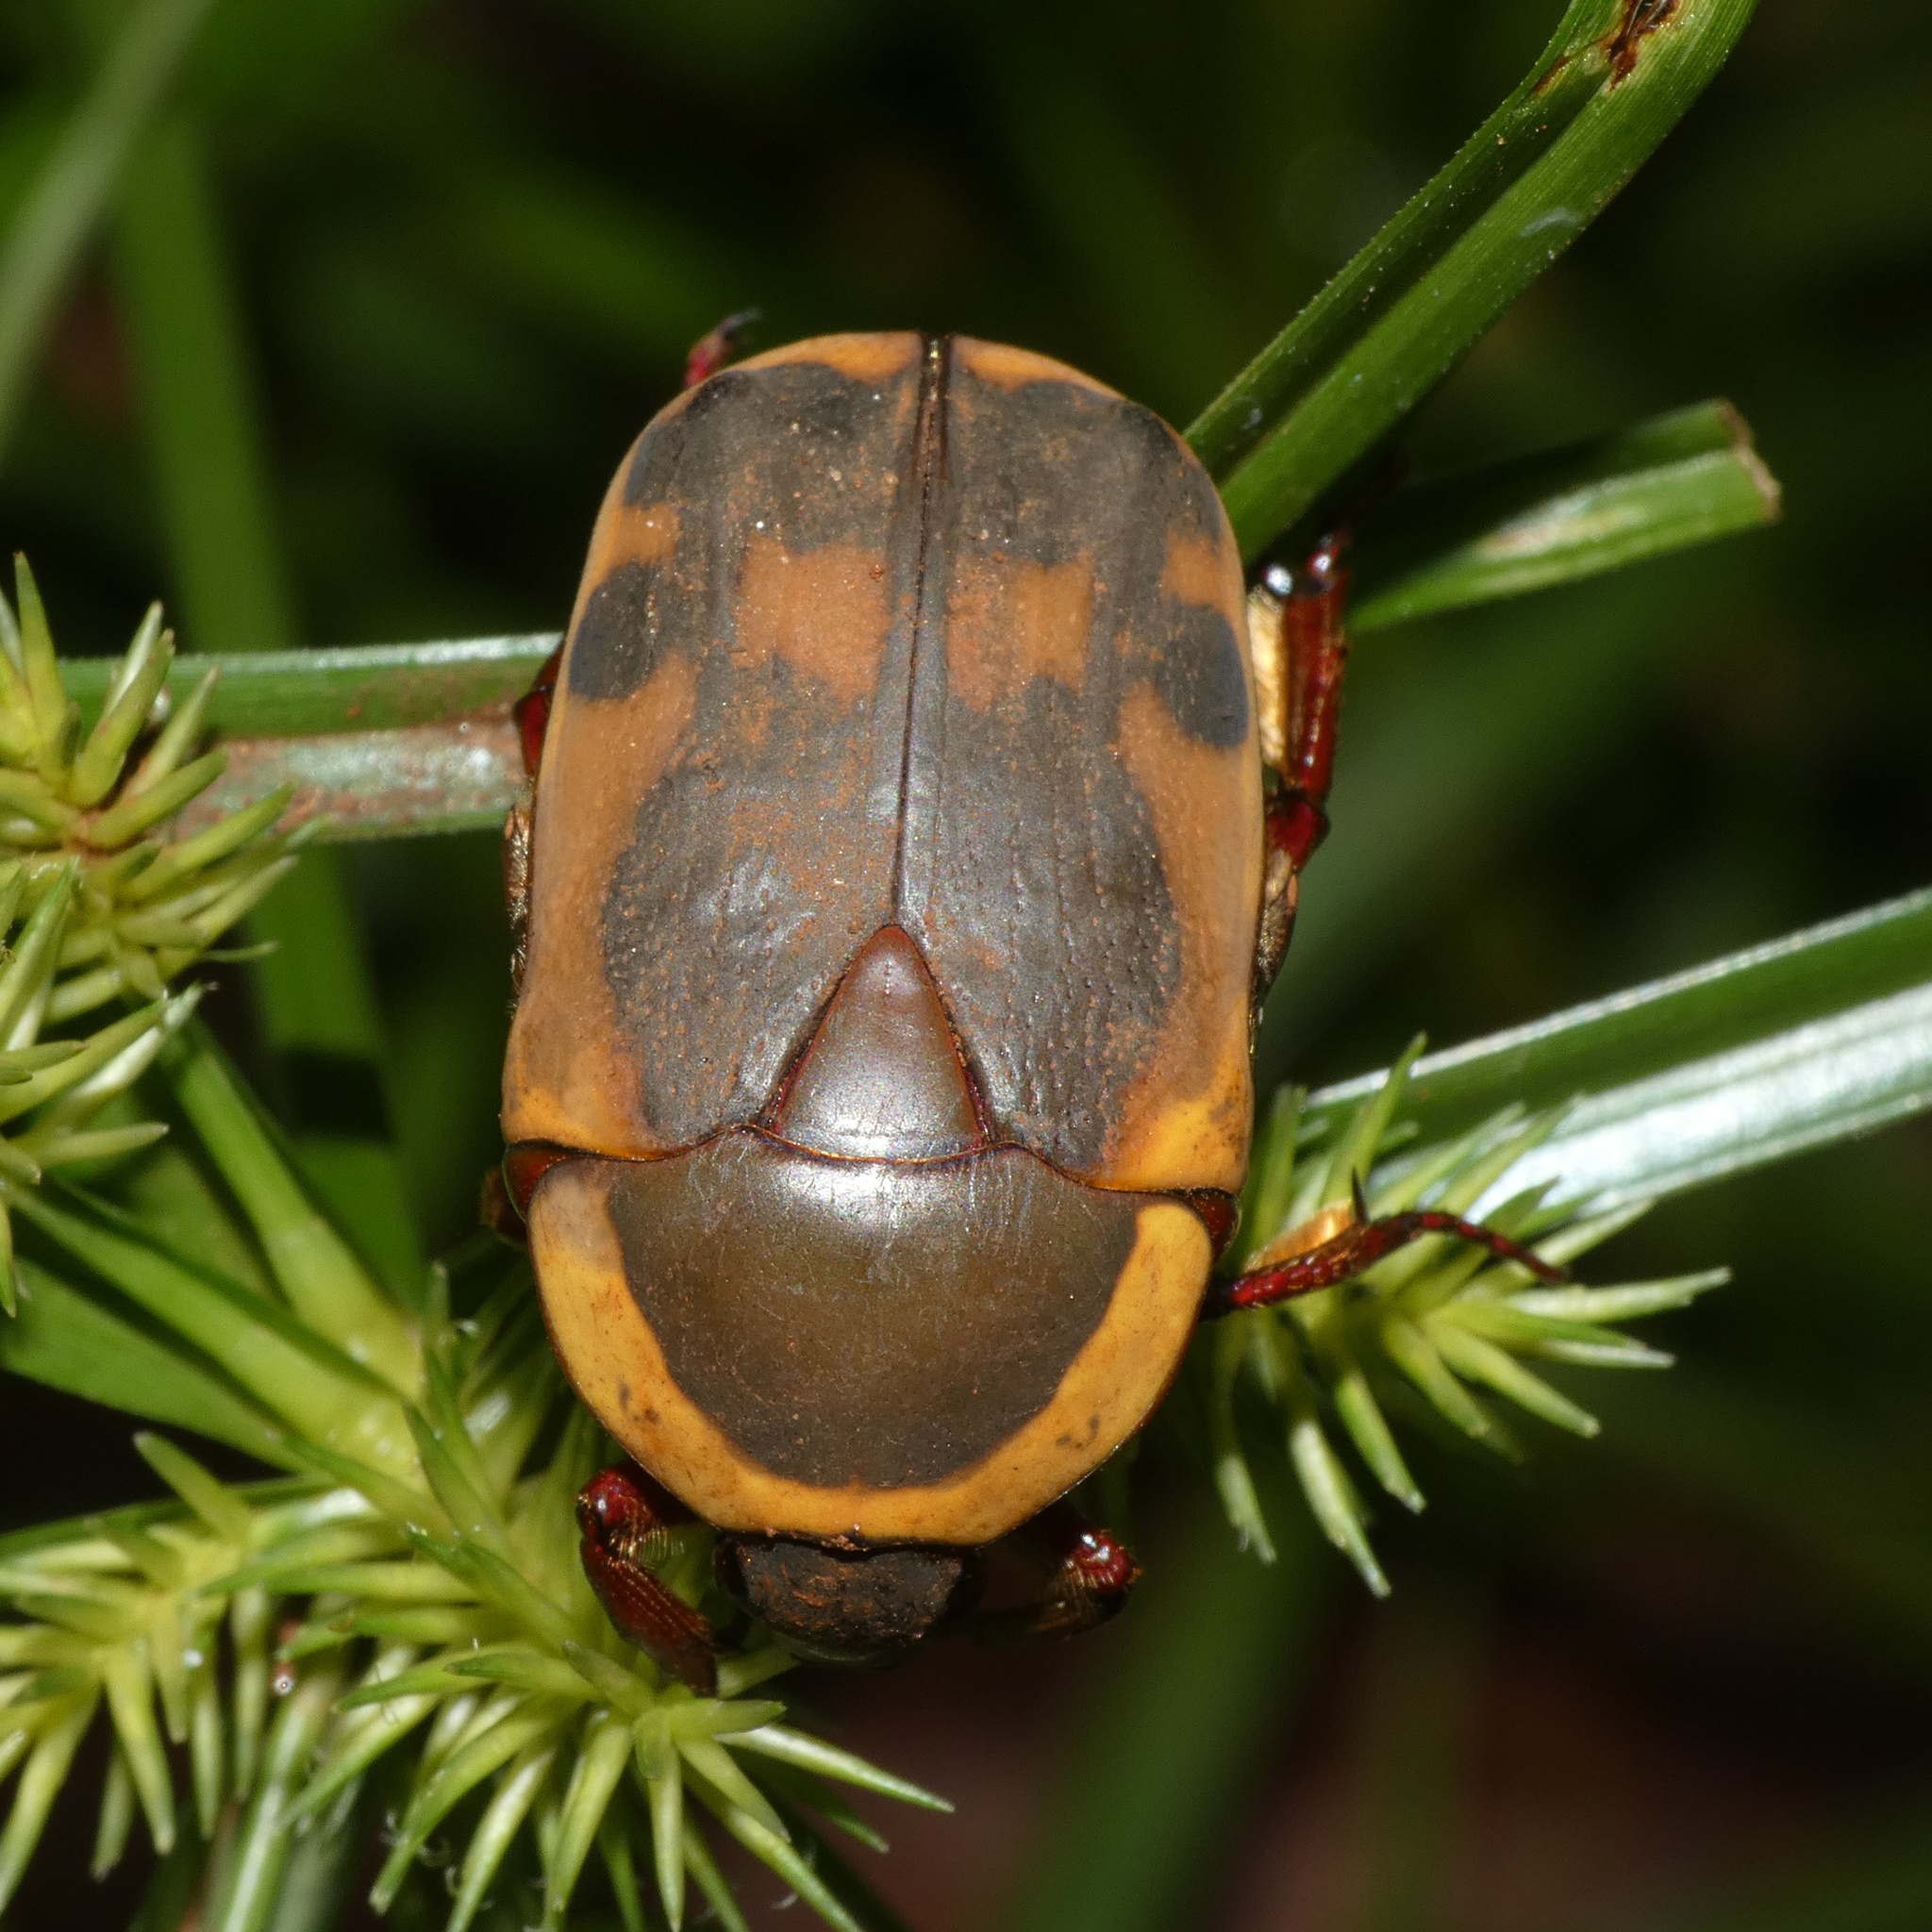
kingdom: Animalia
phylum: Arthropoda
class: Insecta
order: Coleoptera
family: Scarabaeidae
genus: Marmylida
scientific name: Marmylida impressa
